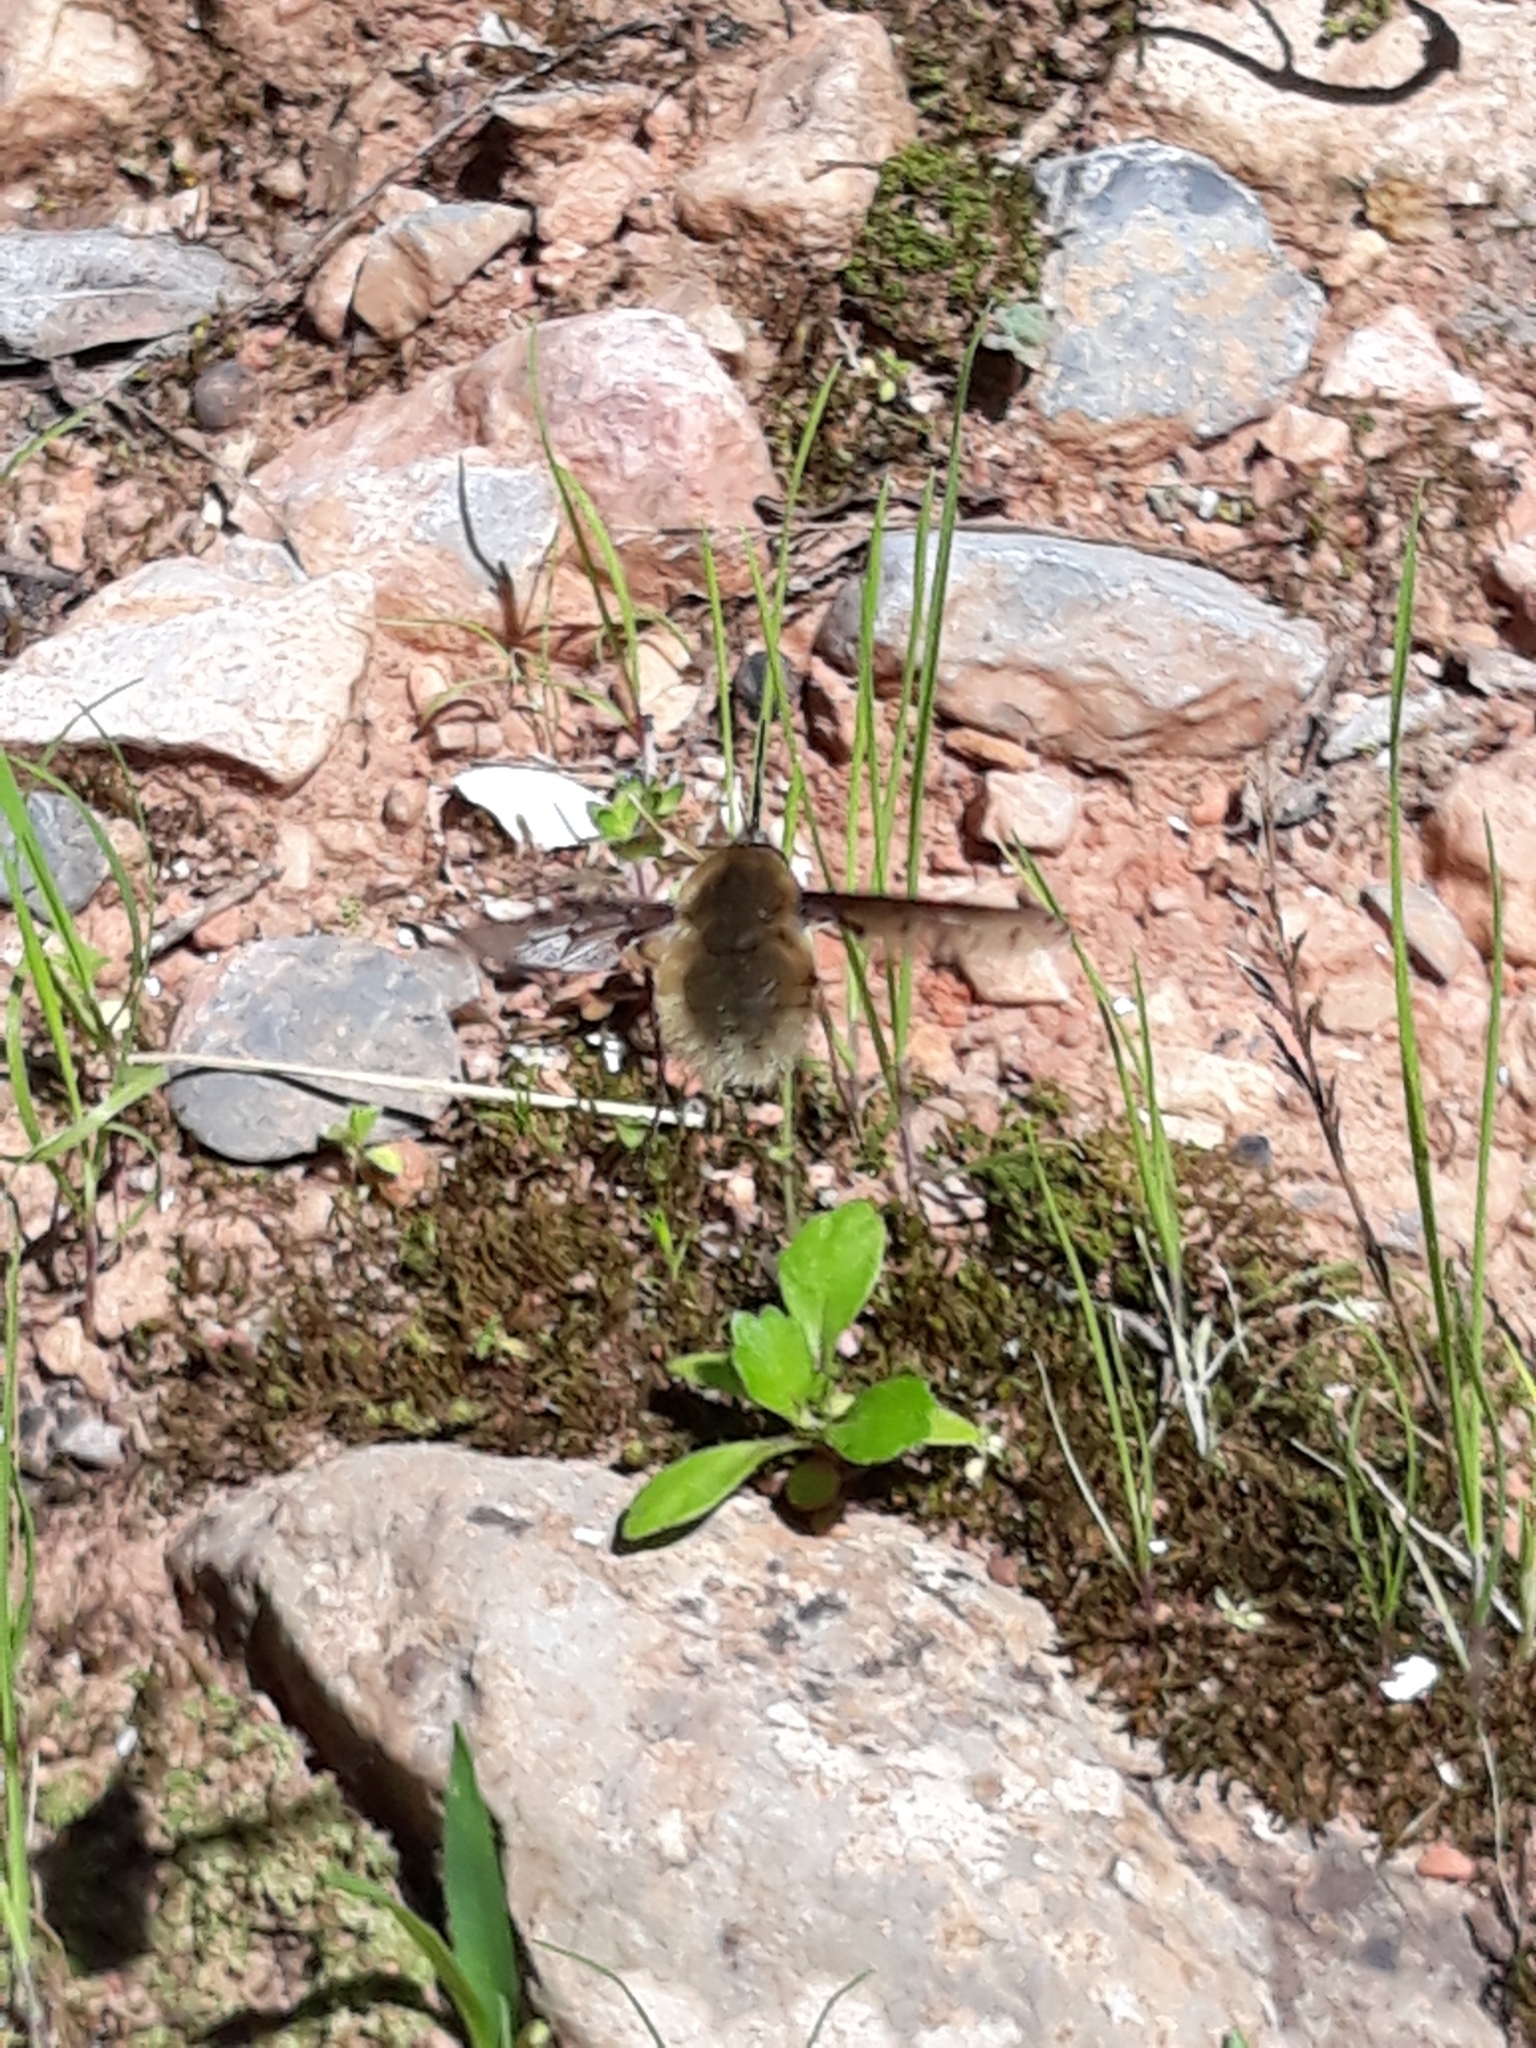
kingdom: Animalia
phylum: Arthropoda
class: Insecta
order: Diptera
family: Bombyliidae
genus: Bombylius
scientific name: Bombylius medius
